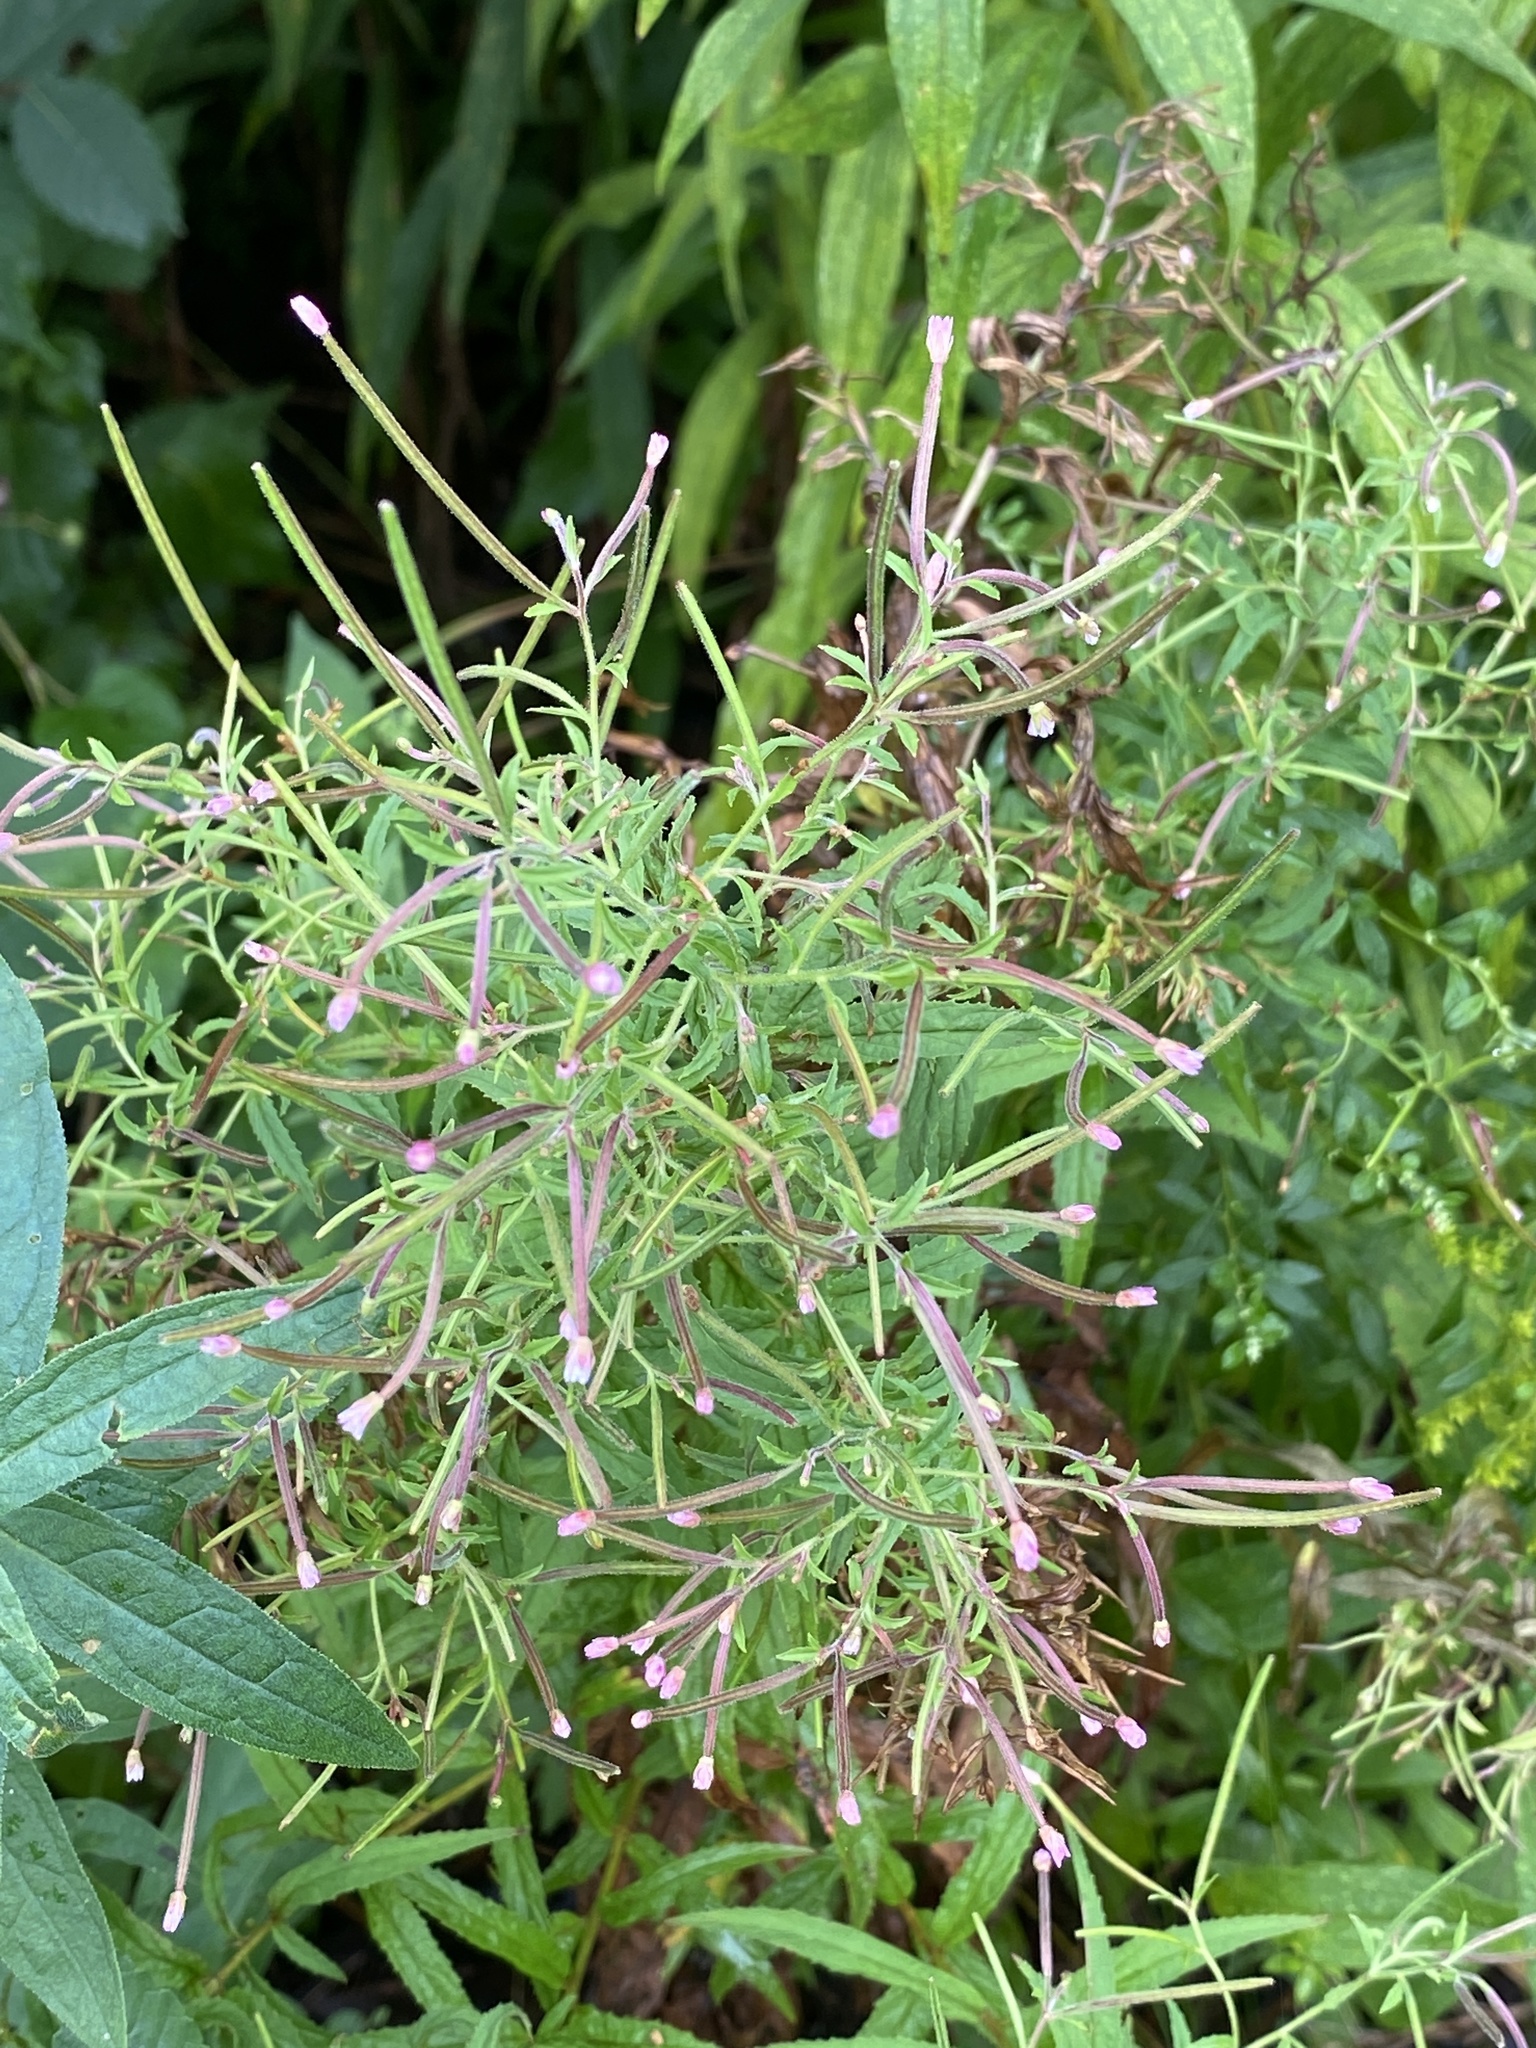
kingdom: Plantae
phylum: Tracheophyta
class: Magnoliopsida
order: Myrtales
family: Onagraceae
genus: Epilobium
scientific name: Epilobium coloratum
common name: Bronze willowherb
